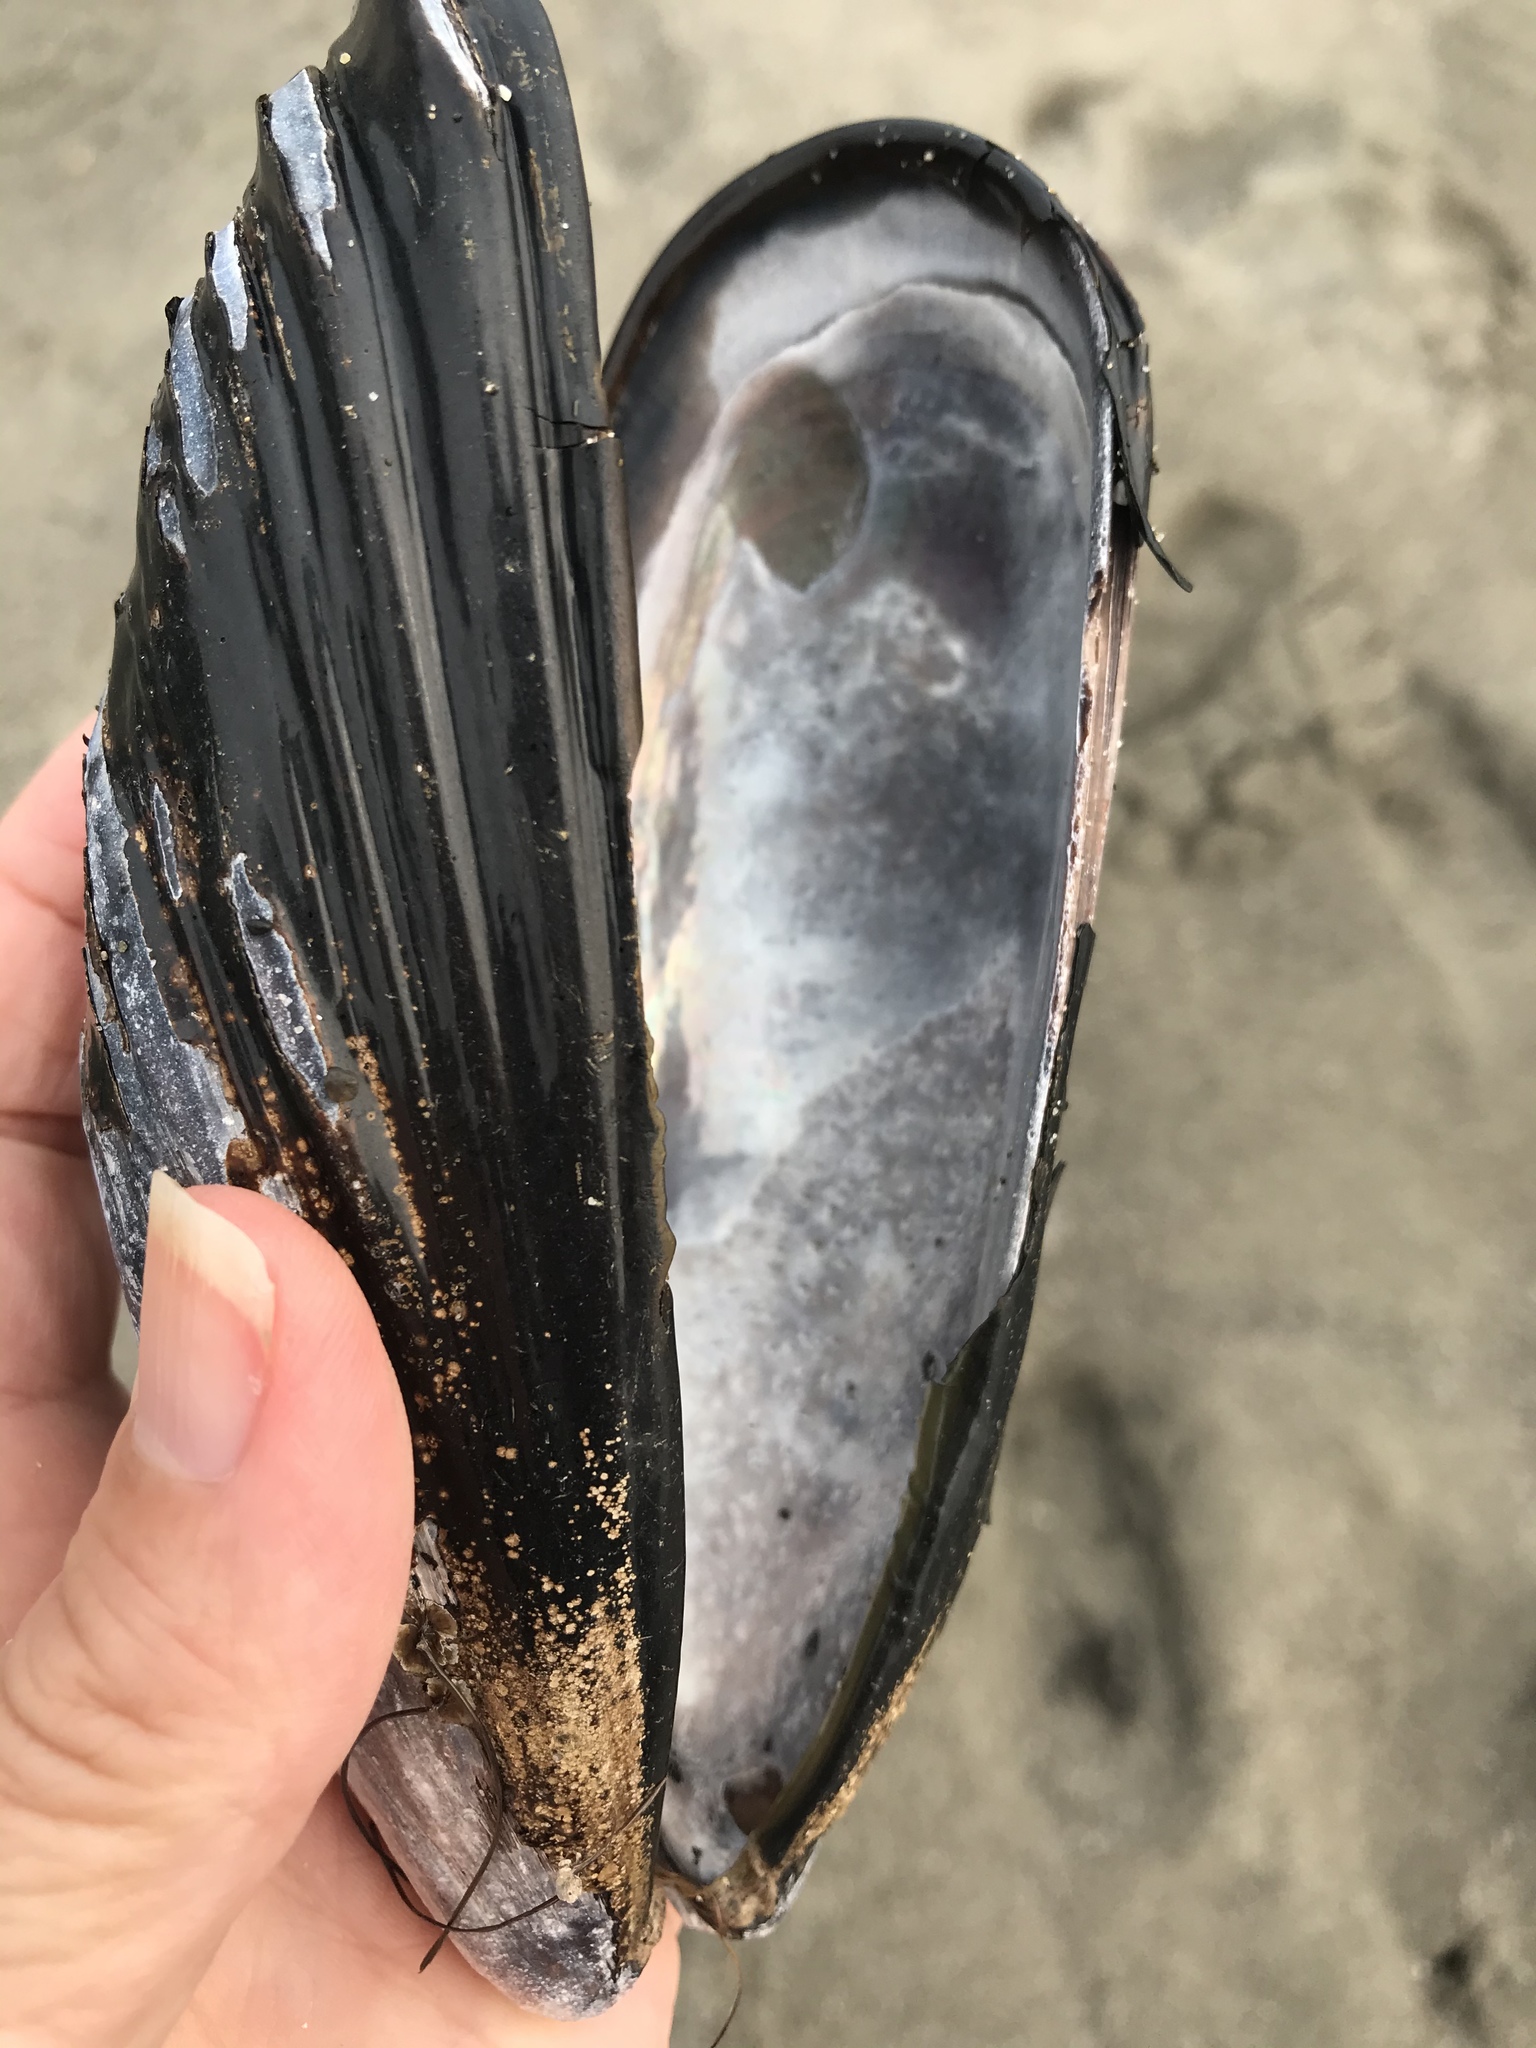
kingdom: Animalia
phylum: Mollusca
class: Bivalvia
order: Mytilida
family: Mytilidae
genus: Mytilus
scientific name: Mytilus californianus
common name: California mussel
